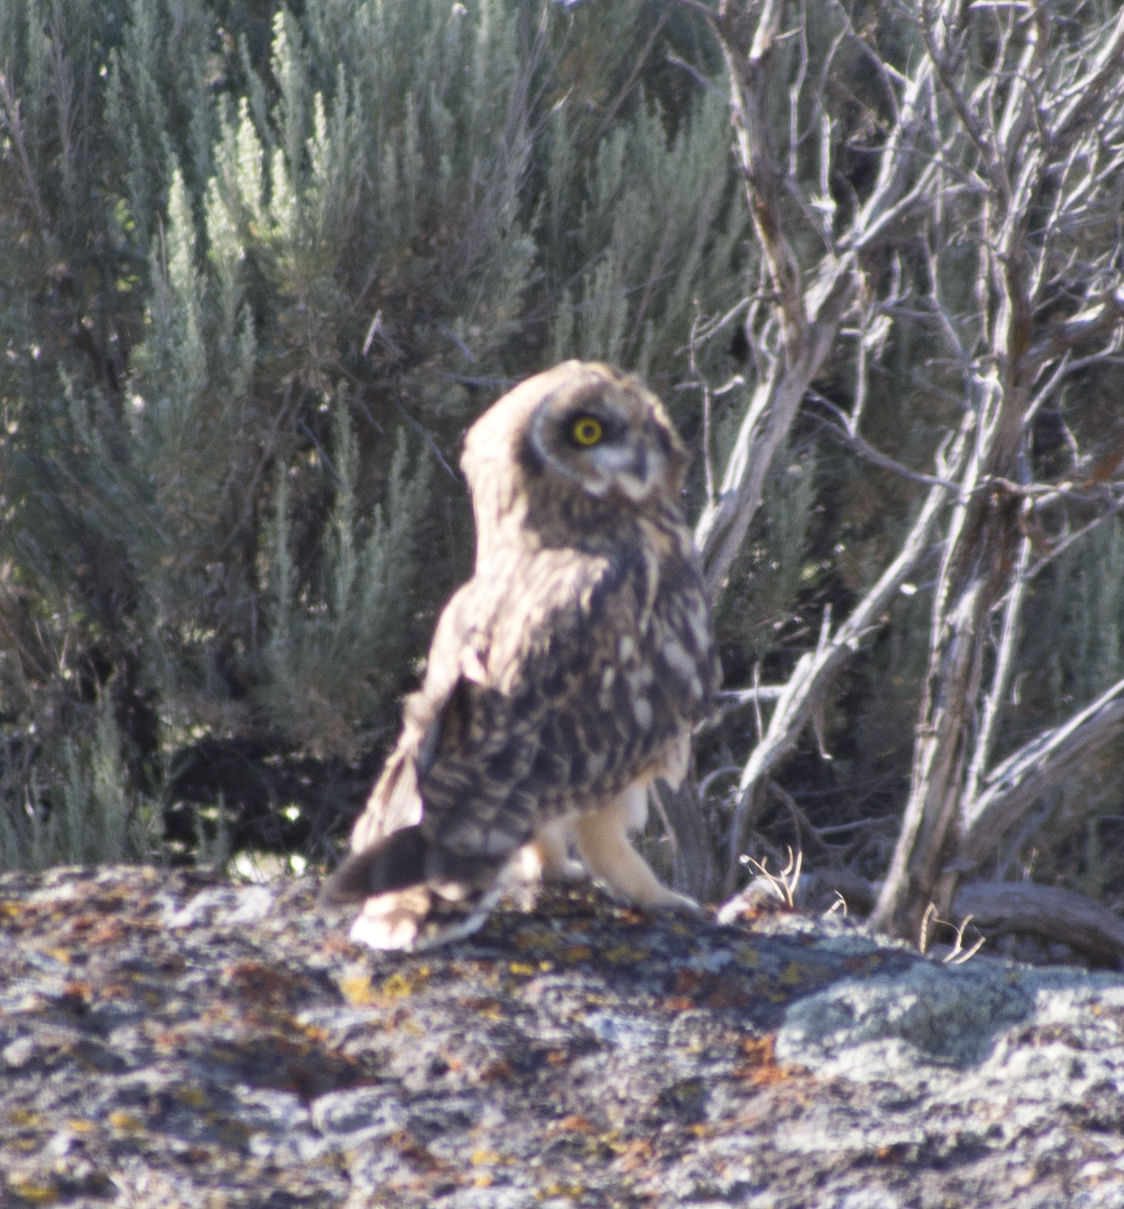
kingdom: Animalia
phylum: Chordata
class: Aves
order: Strigiformes
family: Strigidae
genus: Asio
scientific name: Asio flammeus
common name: Short-eared owl
